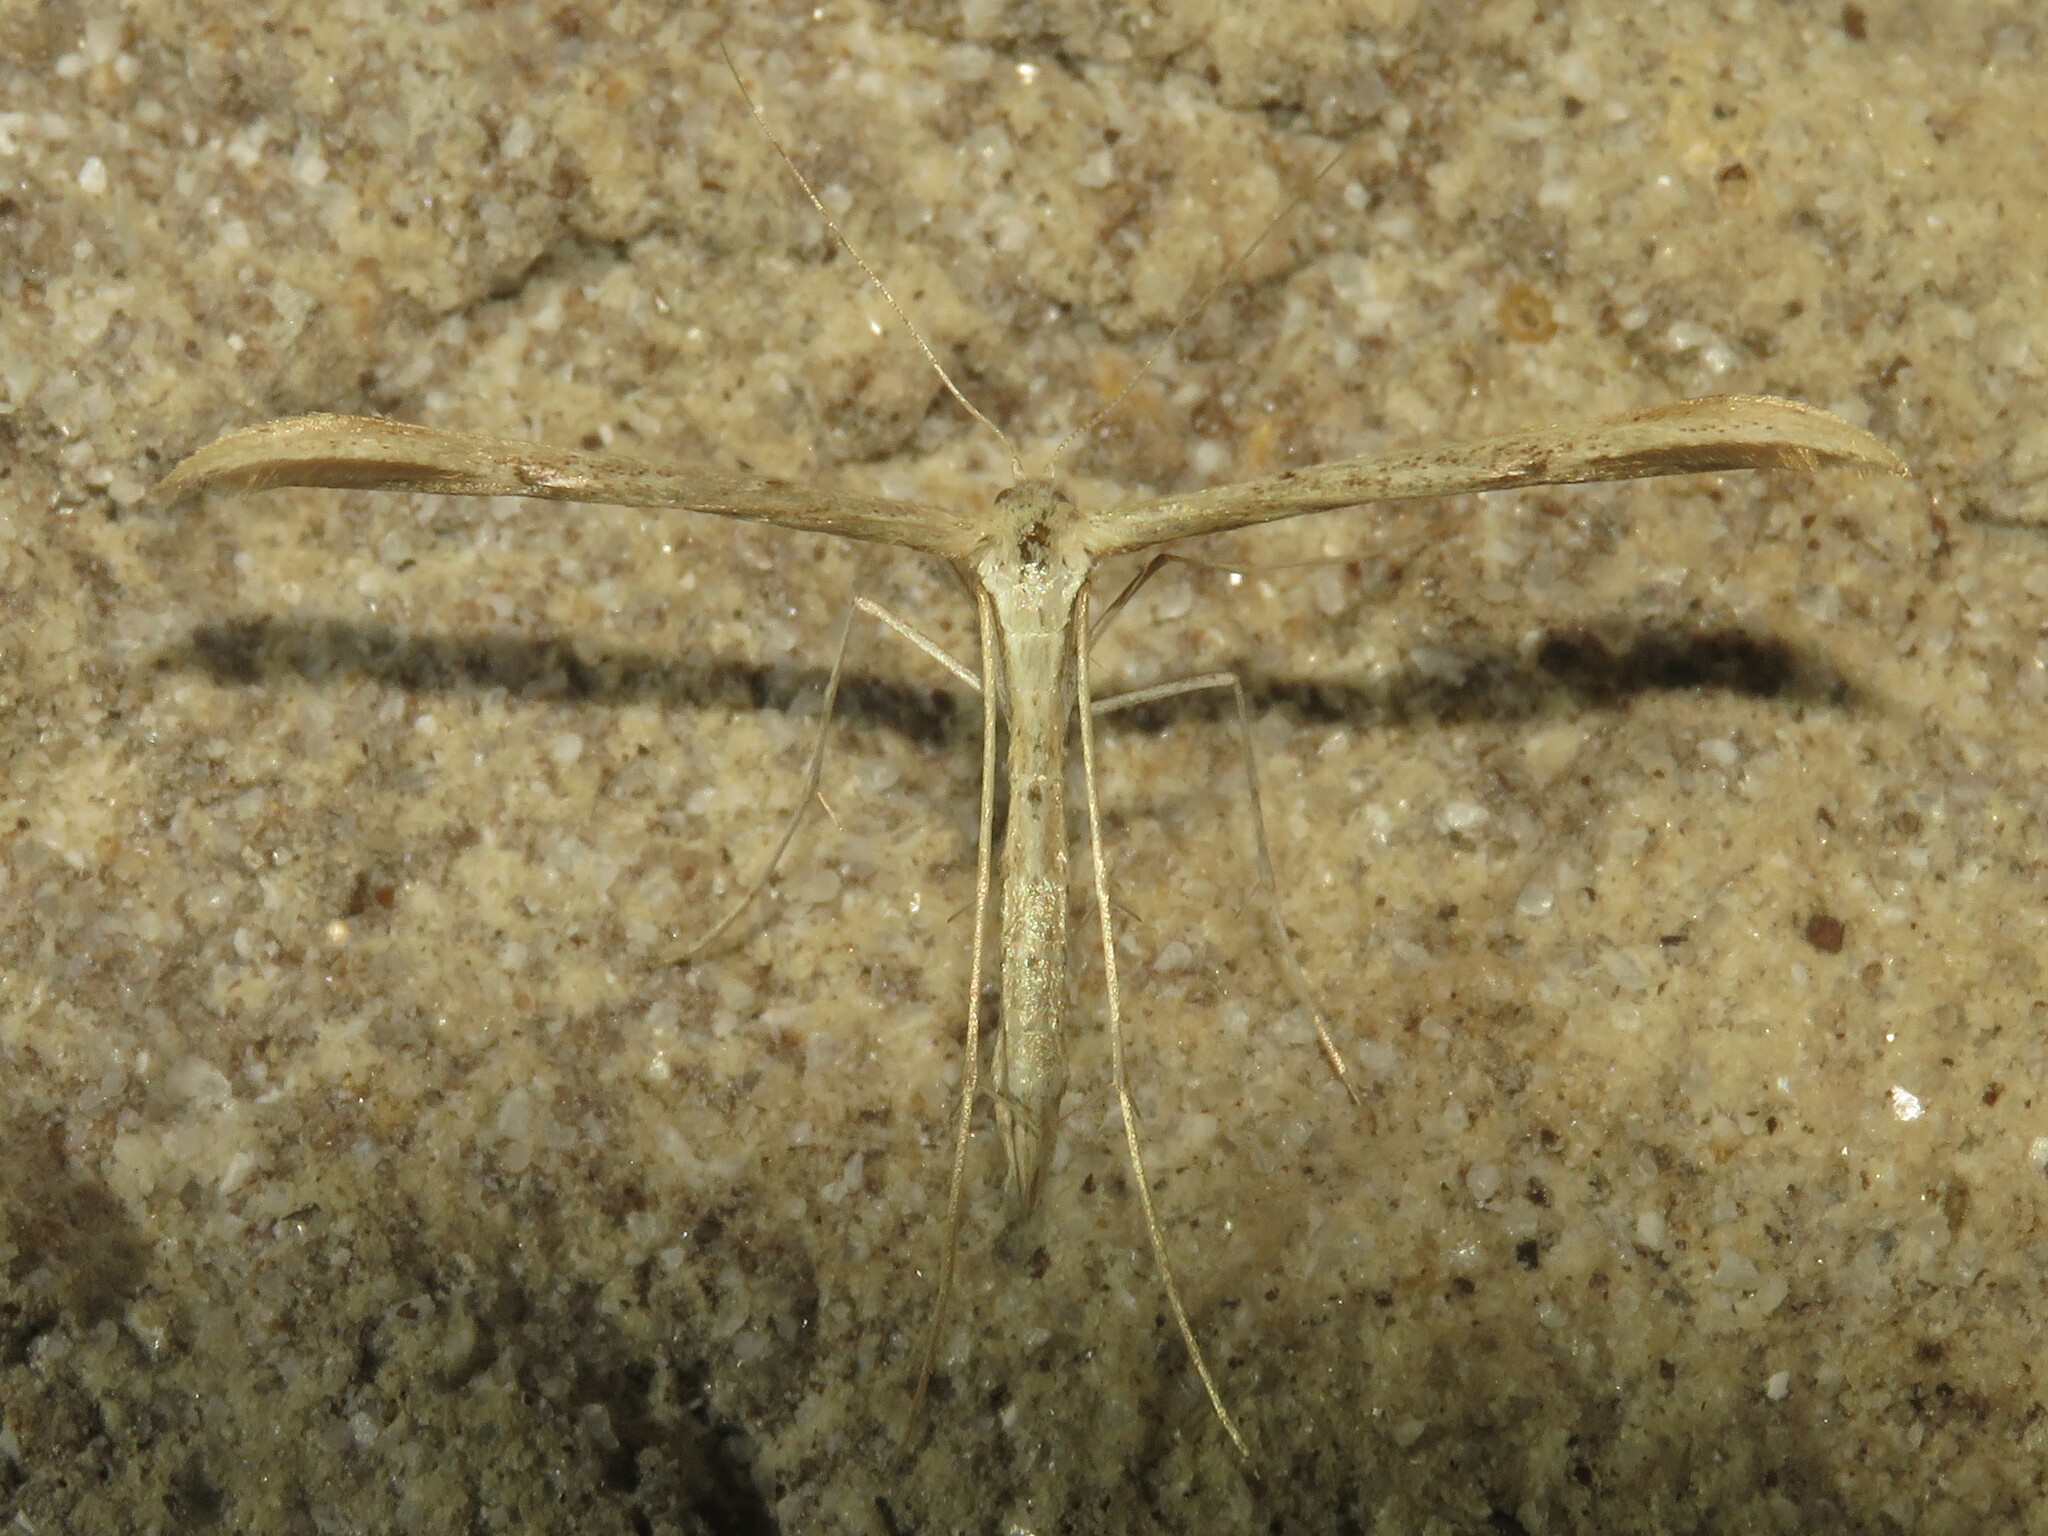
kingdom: Animalia
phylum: Arthropoda
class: Insecta
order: Lepidoptera
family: Pterophoridae
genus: Emmelina
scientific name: Emmelina monodactyla
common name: Common plume
